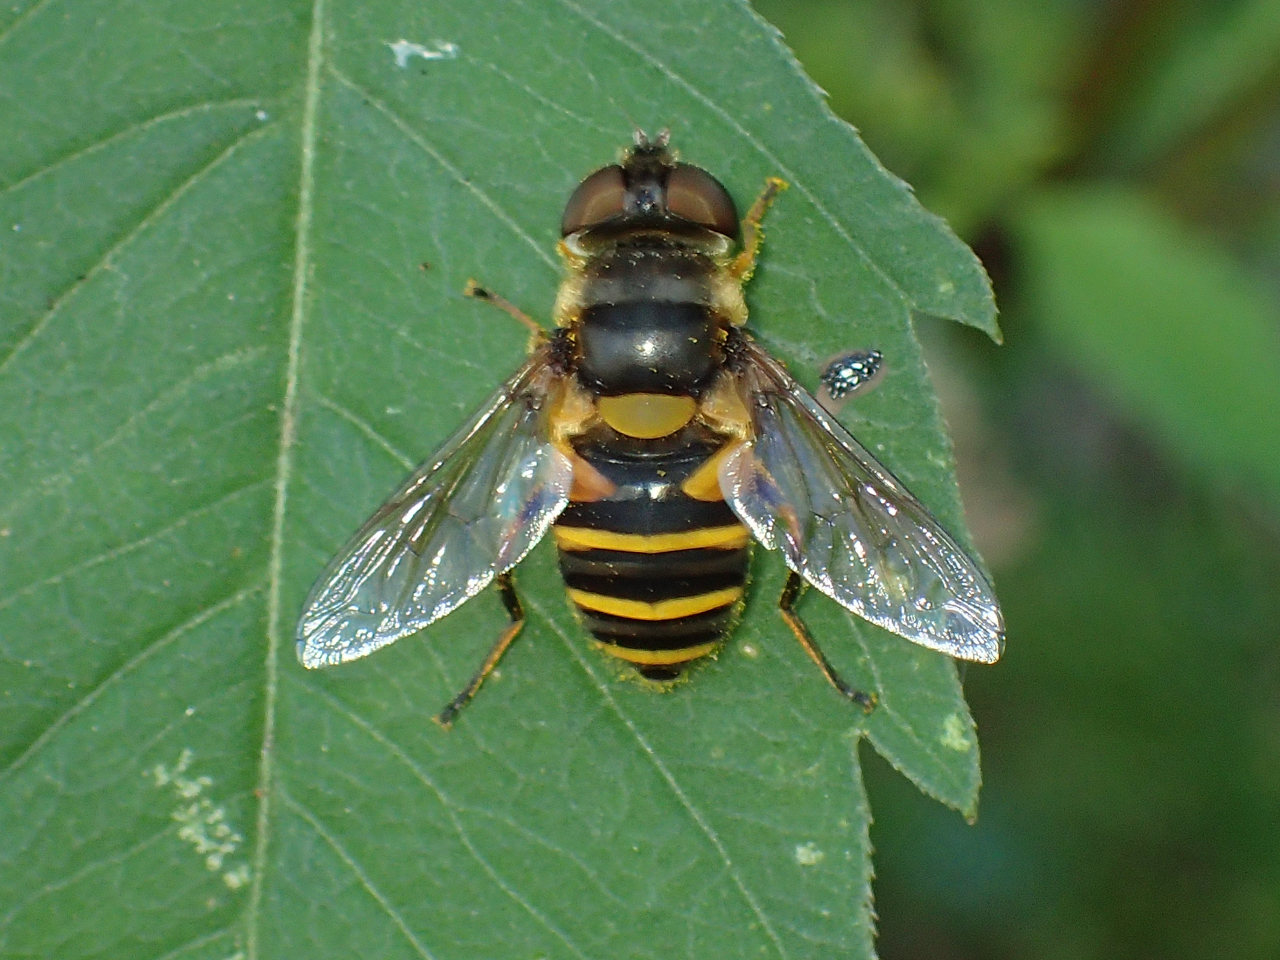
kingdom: Animalia
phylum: Arthropoda
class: Insecta
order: Diptera
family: Syrphidae
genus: Eristalis
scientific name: Eristalis transversa
